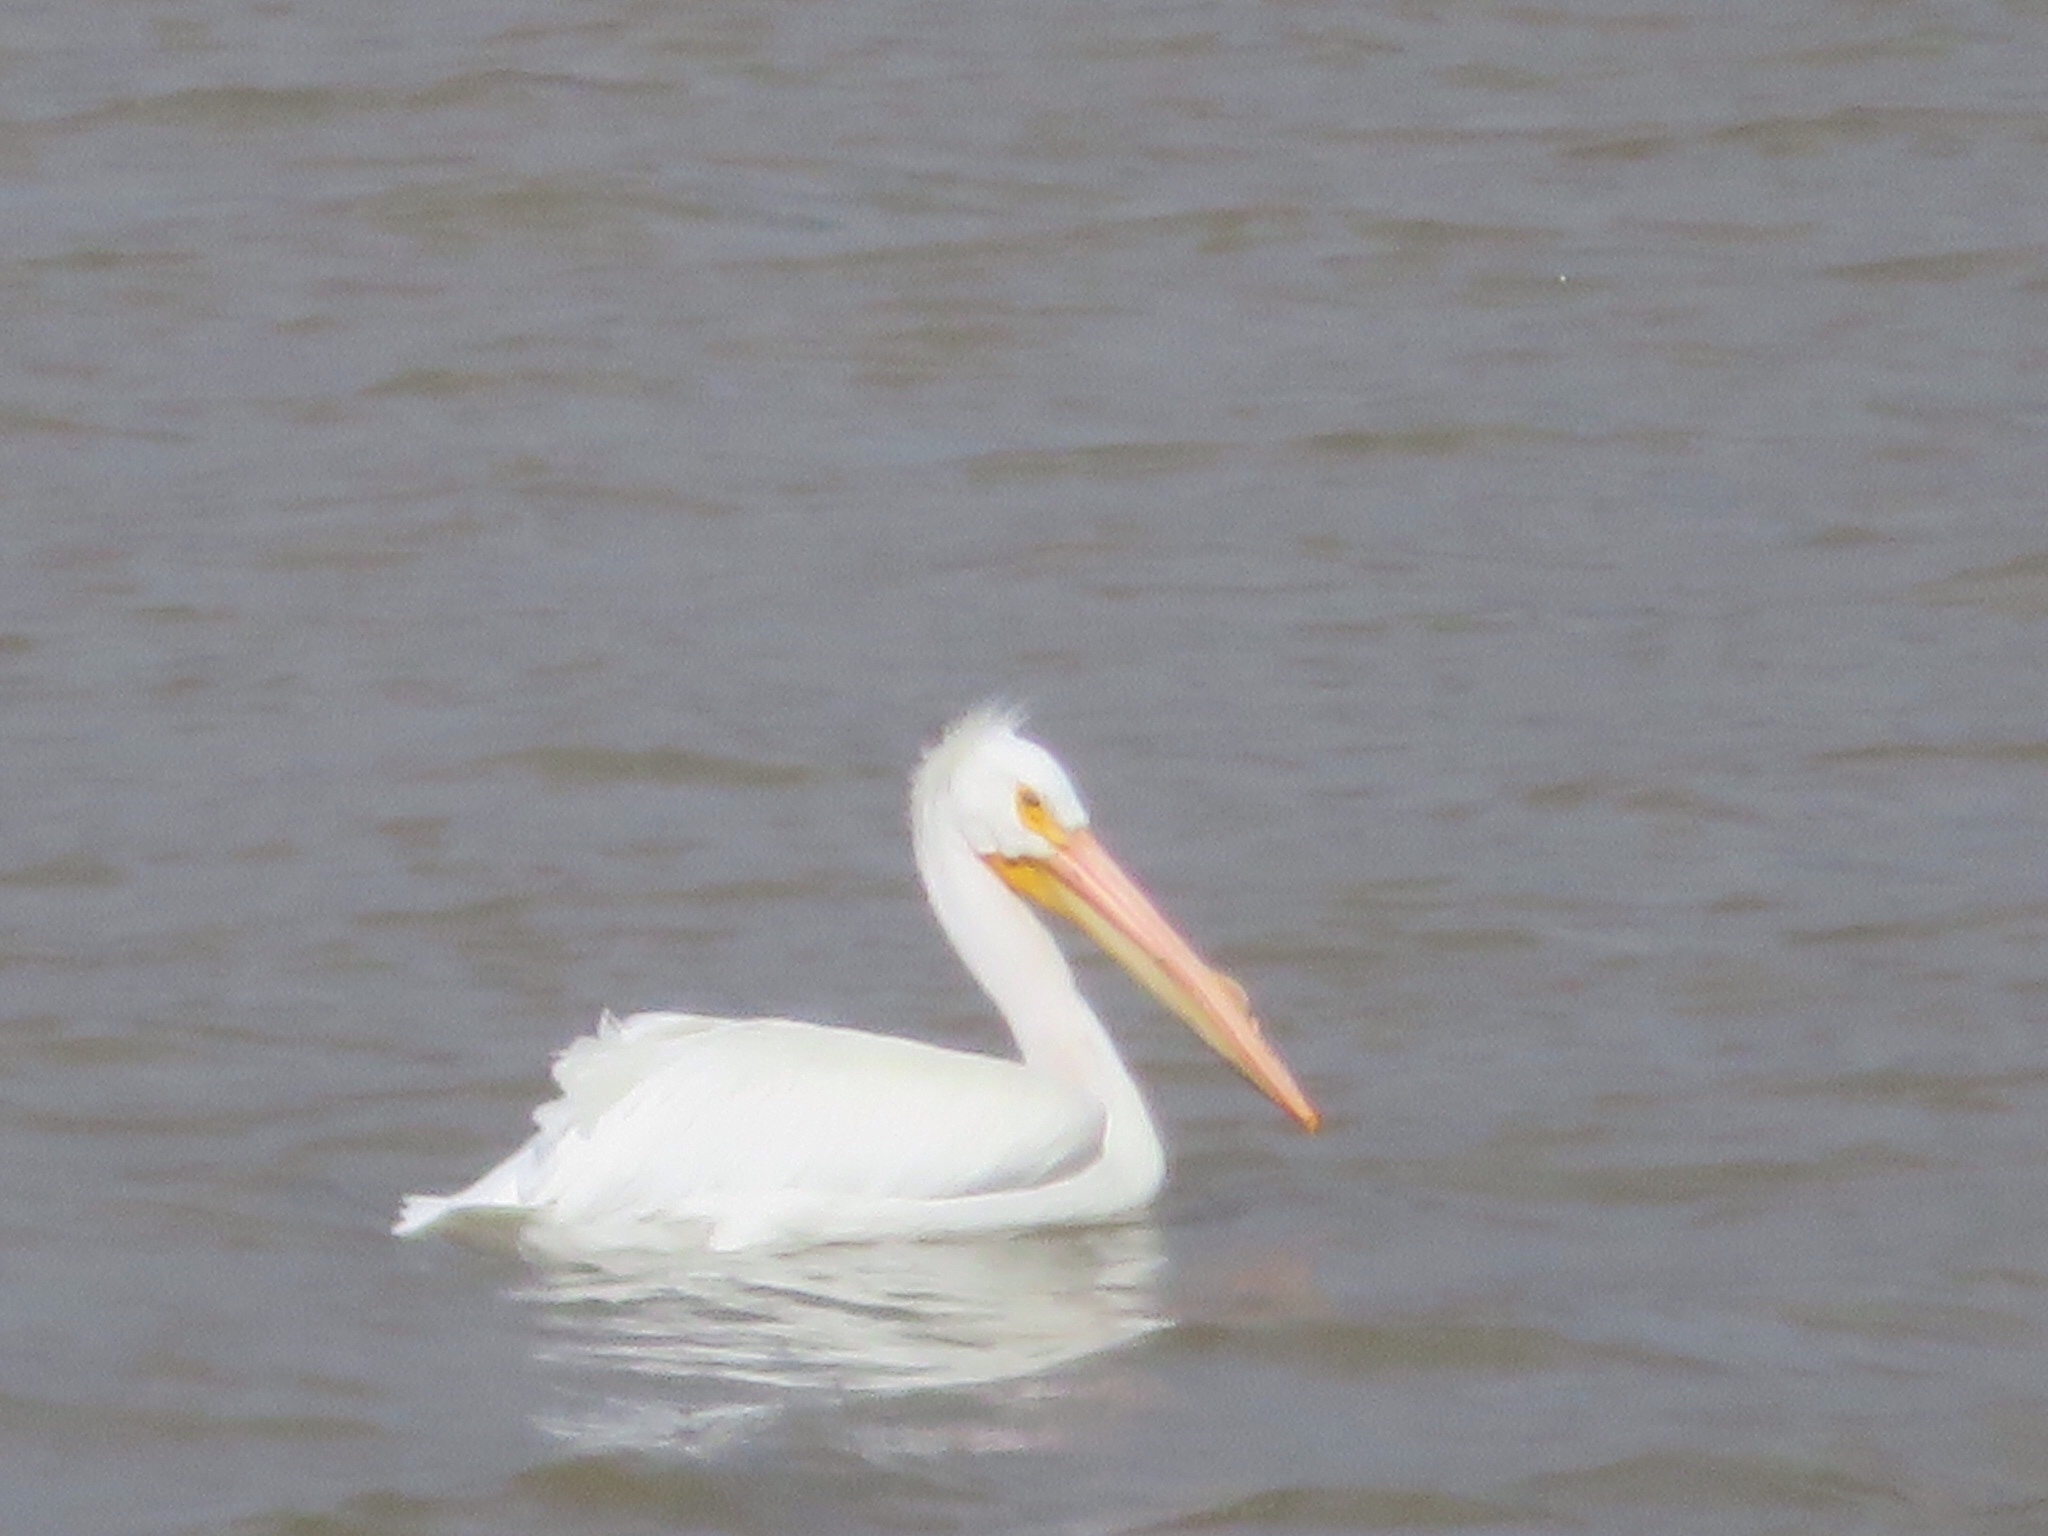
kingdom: Animalia
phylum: Chordata
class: Aves
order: Pelecaniformes
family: Pelecanidae
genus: Pelecanus
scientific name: Pelecanus erythrorhynchos
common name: American white pelican
